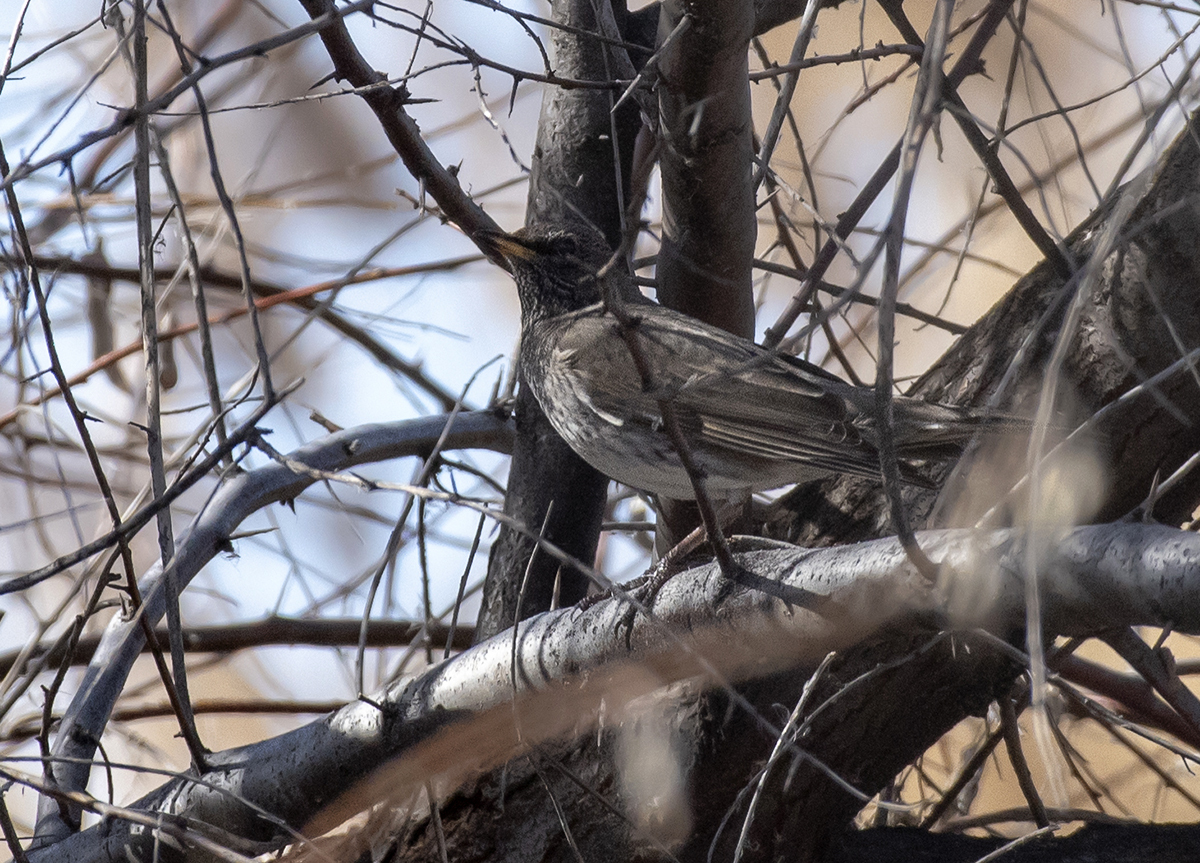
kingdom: Animalia
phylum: Chordata
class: Aves
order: Passeriformes
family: Turdidae
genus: Turdus
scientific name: Turdus atrogularis
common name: Black-throated thrush
